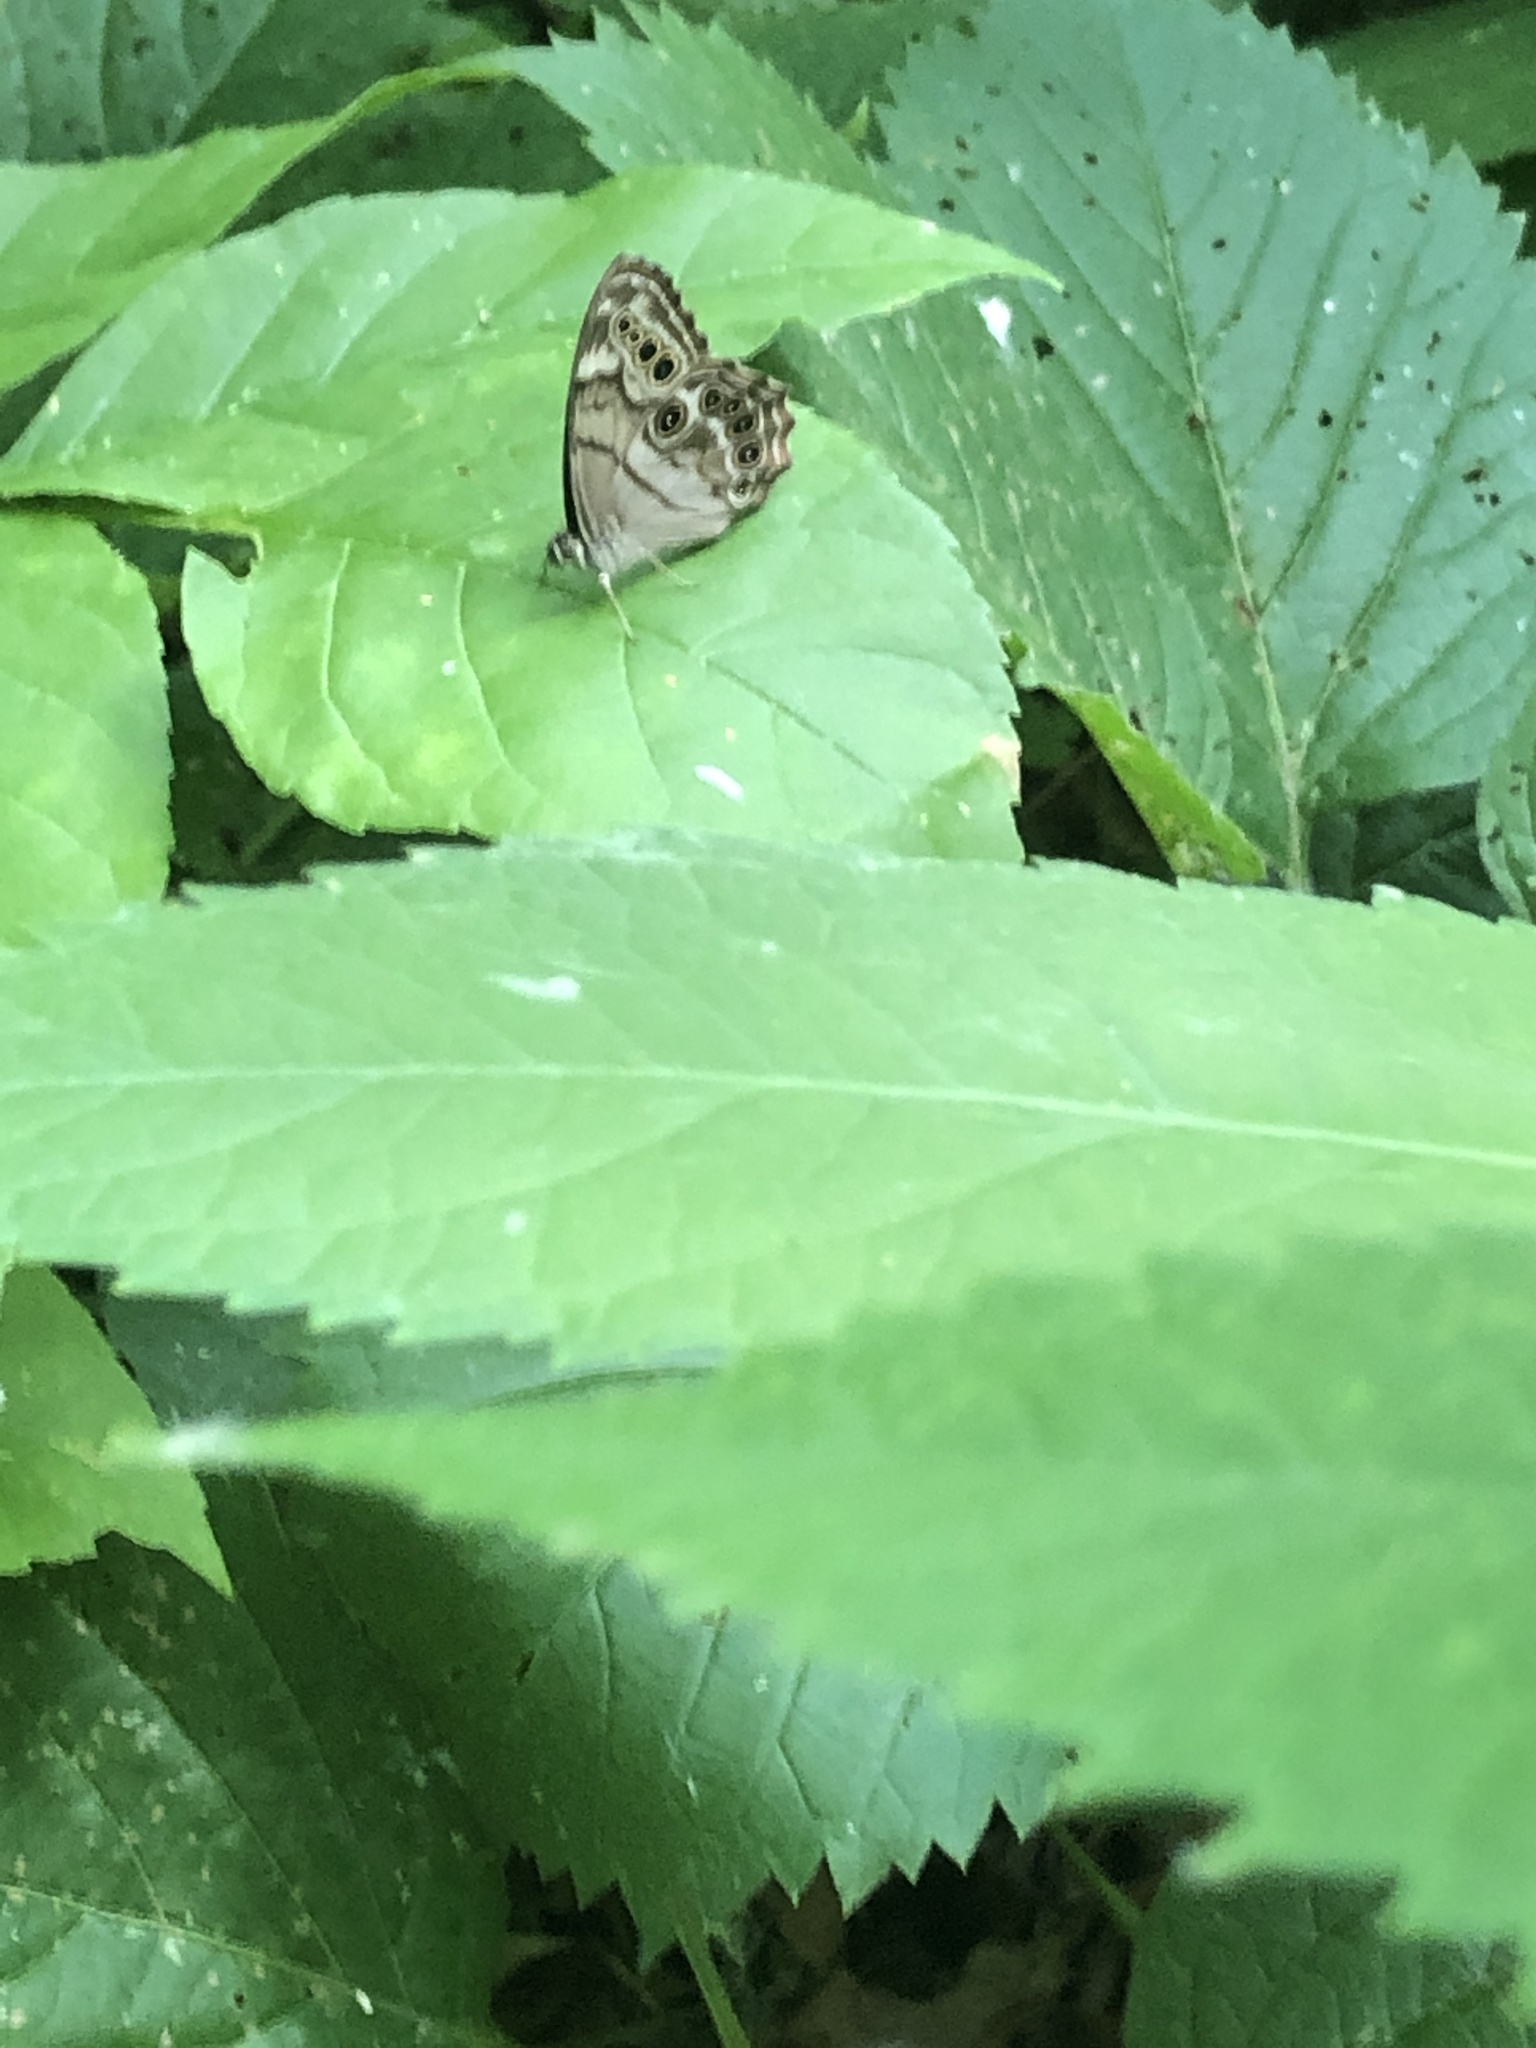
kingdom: Animalia
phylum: Arthropoda
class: Insecta
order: Lepidoptera
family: Nymphalidae
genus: Lethe
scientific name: Lethe anthedon
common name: Northern pearly-eye
